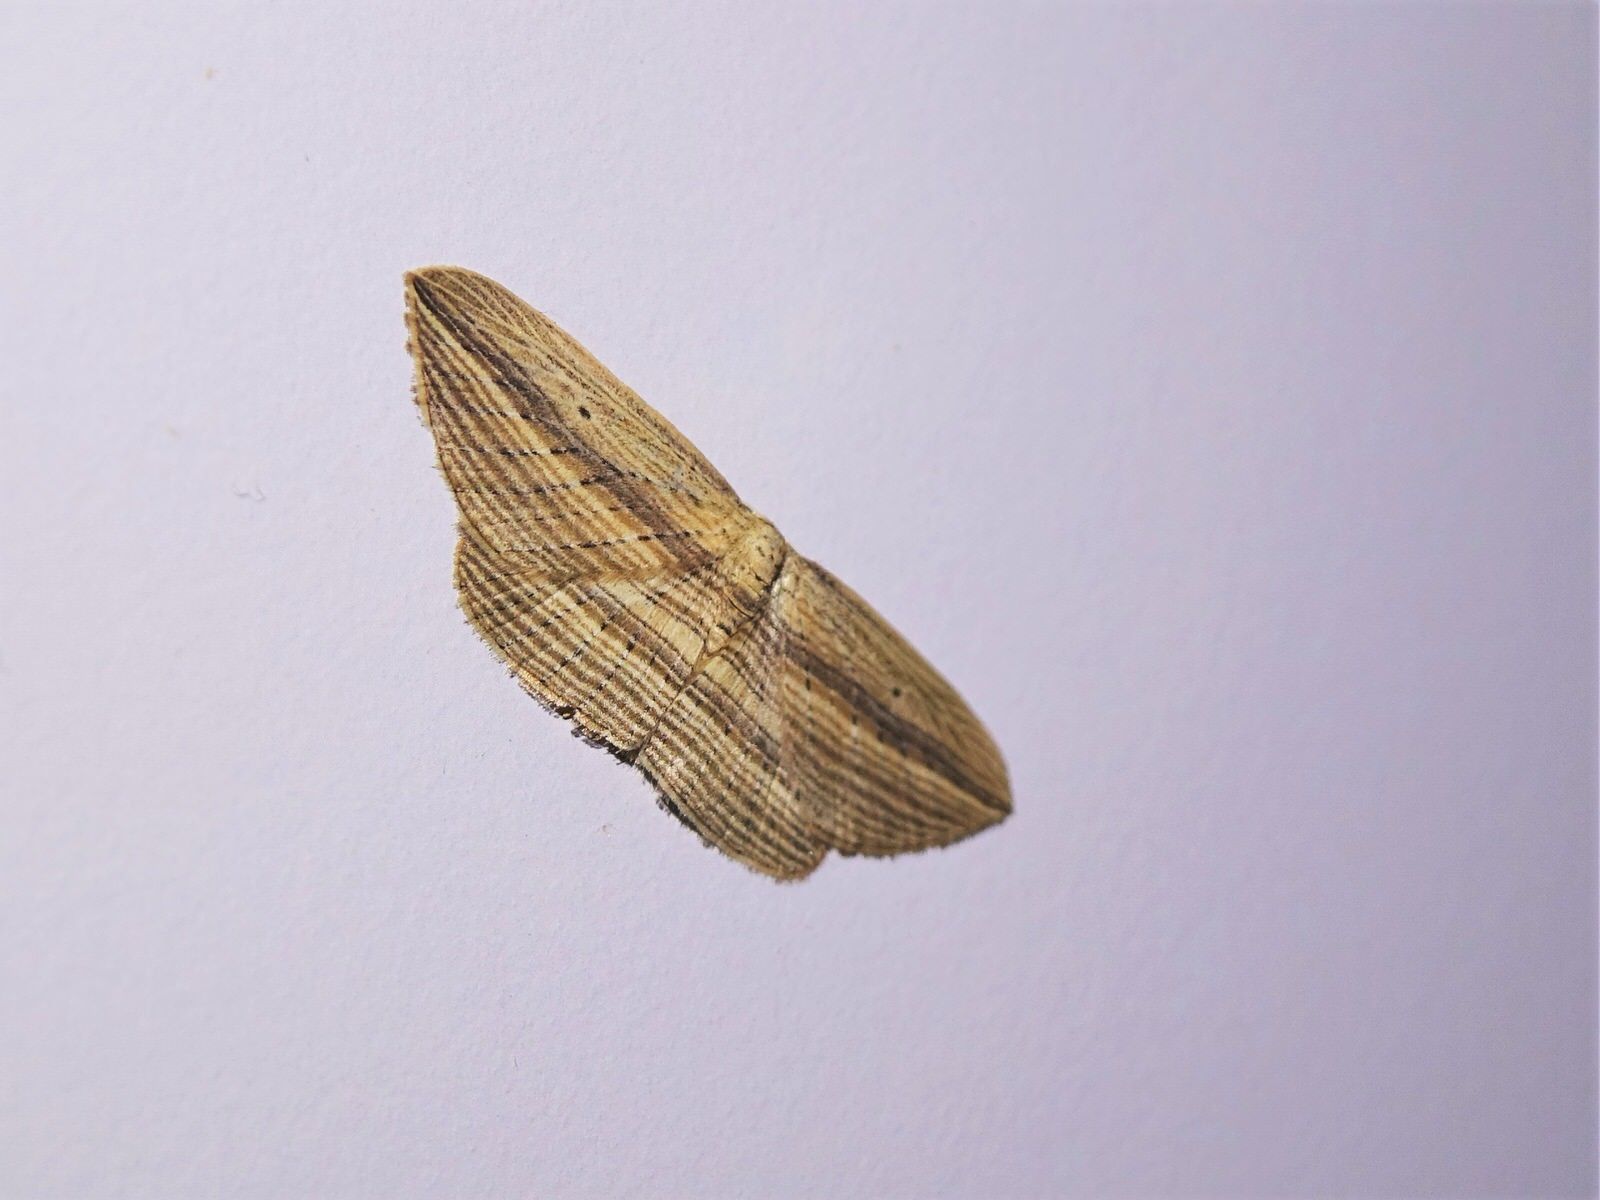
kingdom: Animalia
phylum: Arthropoda
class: Insecta
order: Lepidoptera
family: Geometridae
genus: Epiphryne
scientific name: Epiphryne verriculata
